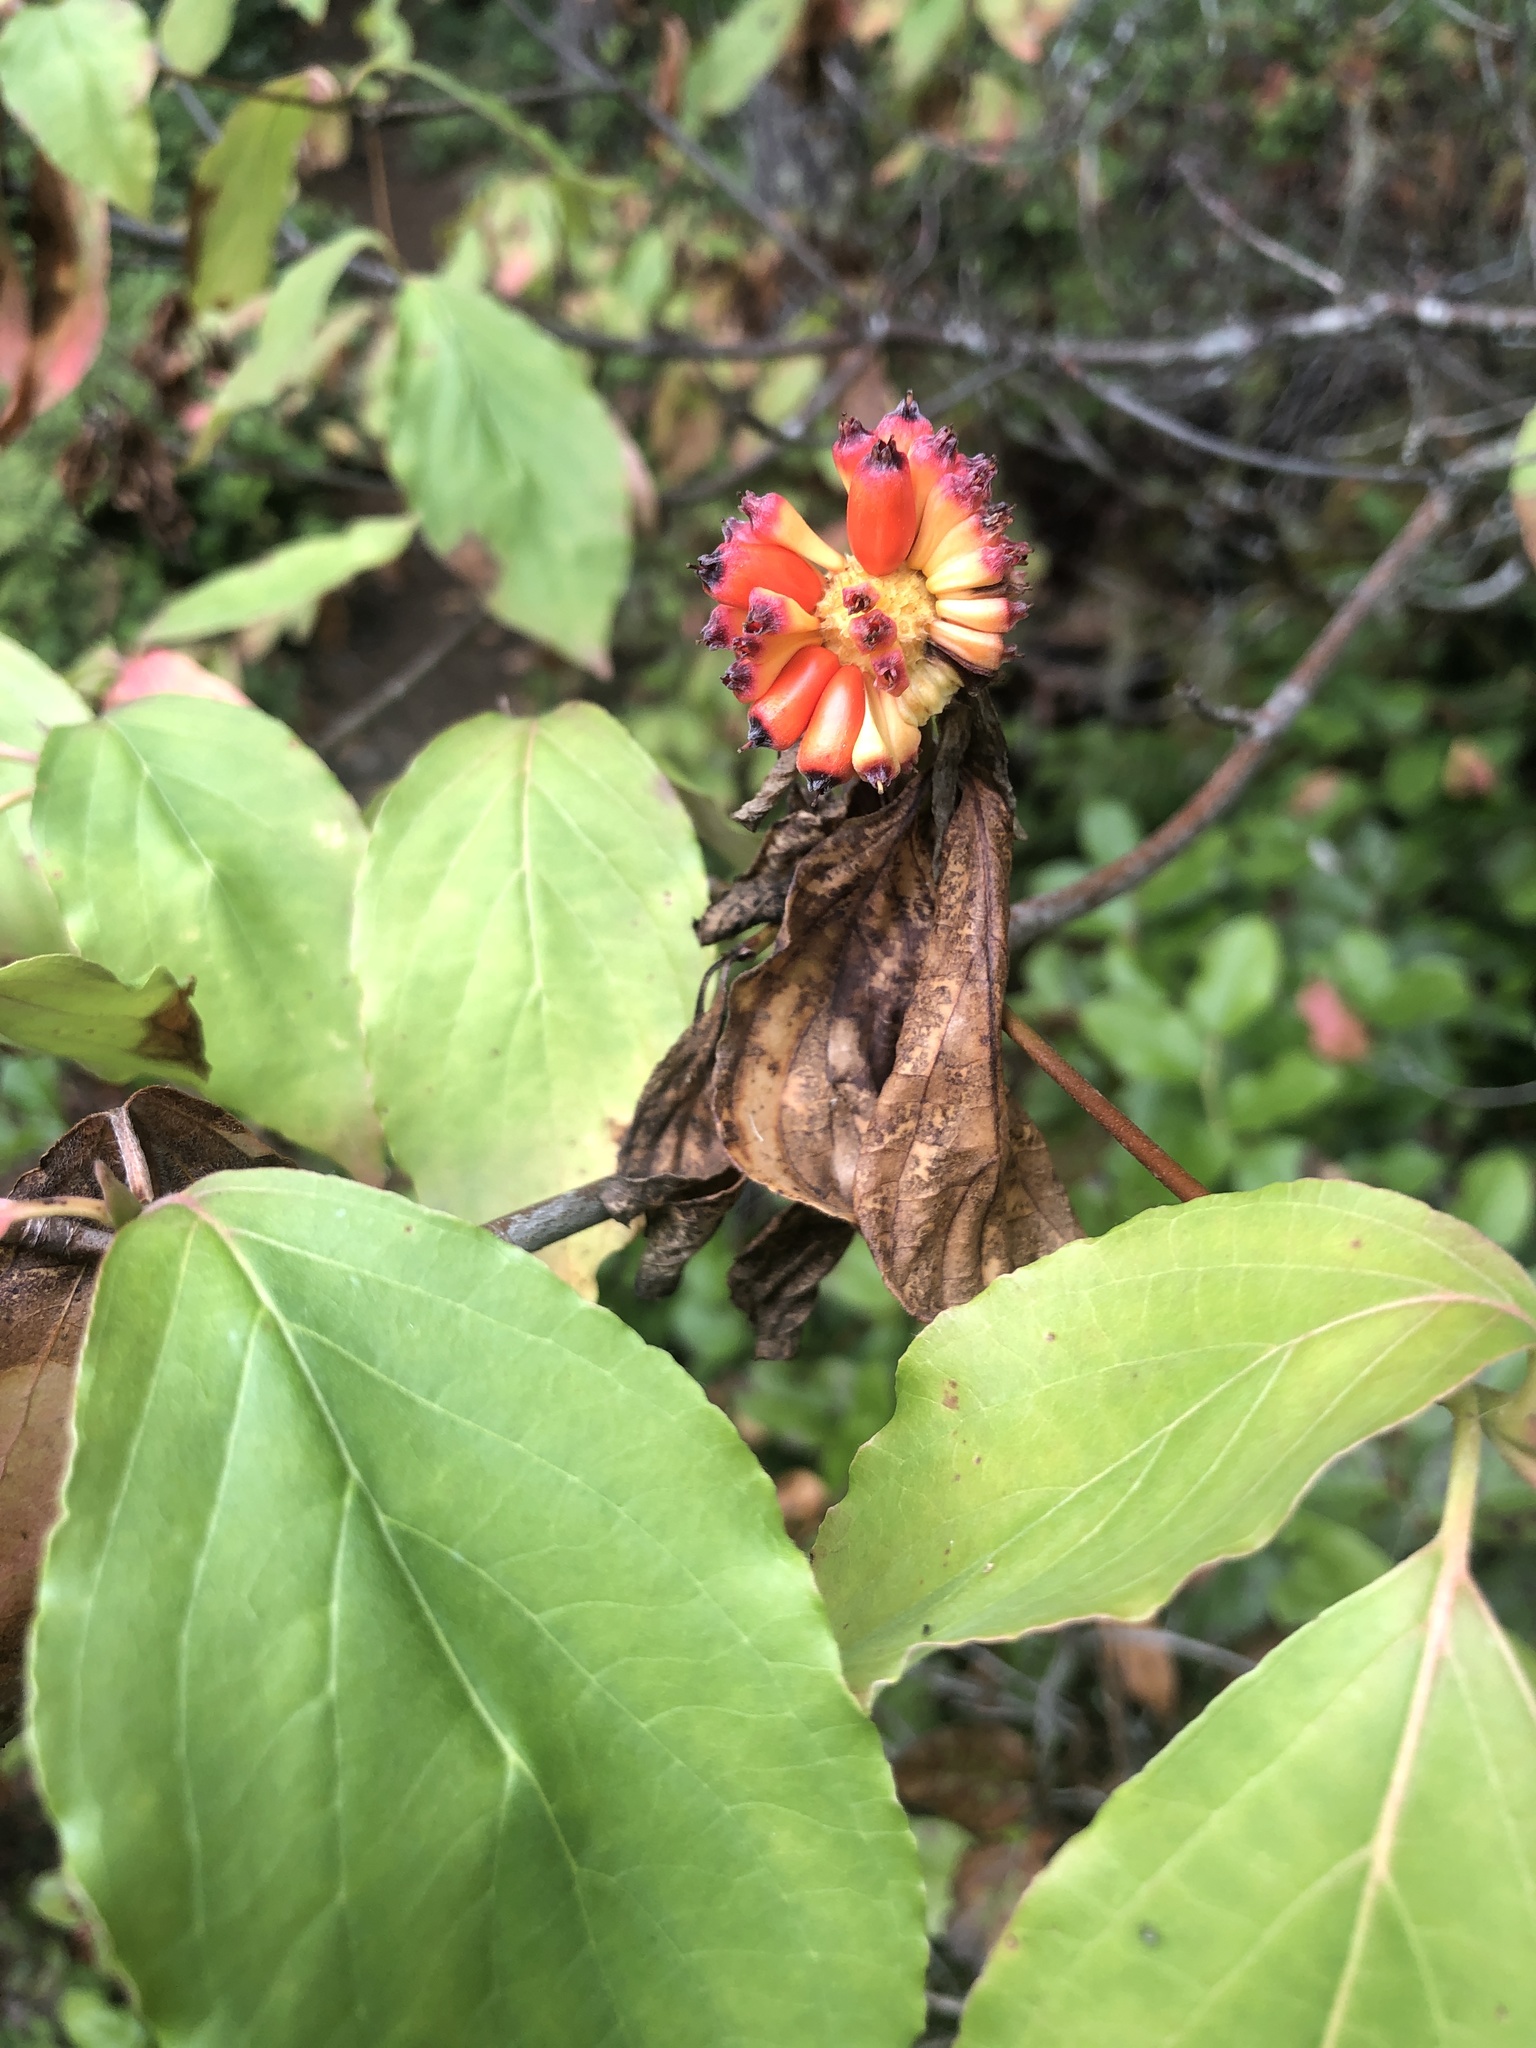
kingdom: Plantae
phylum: Tracheophyta
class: Magnoliopsida
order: Cornales
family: Cornaceae
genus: Cornus
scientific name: Cornus nuttallii
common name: Pacific dogwood
